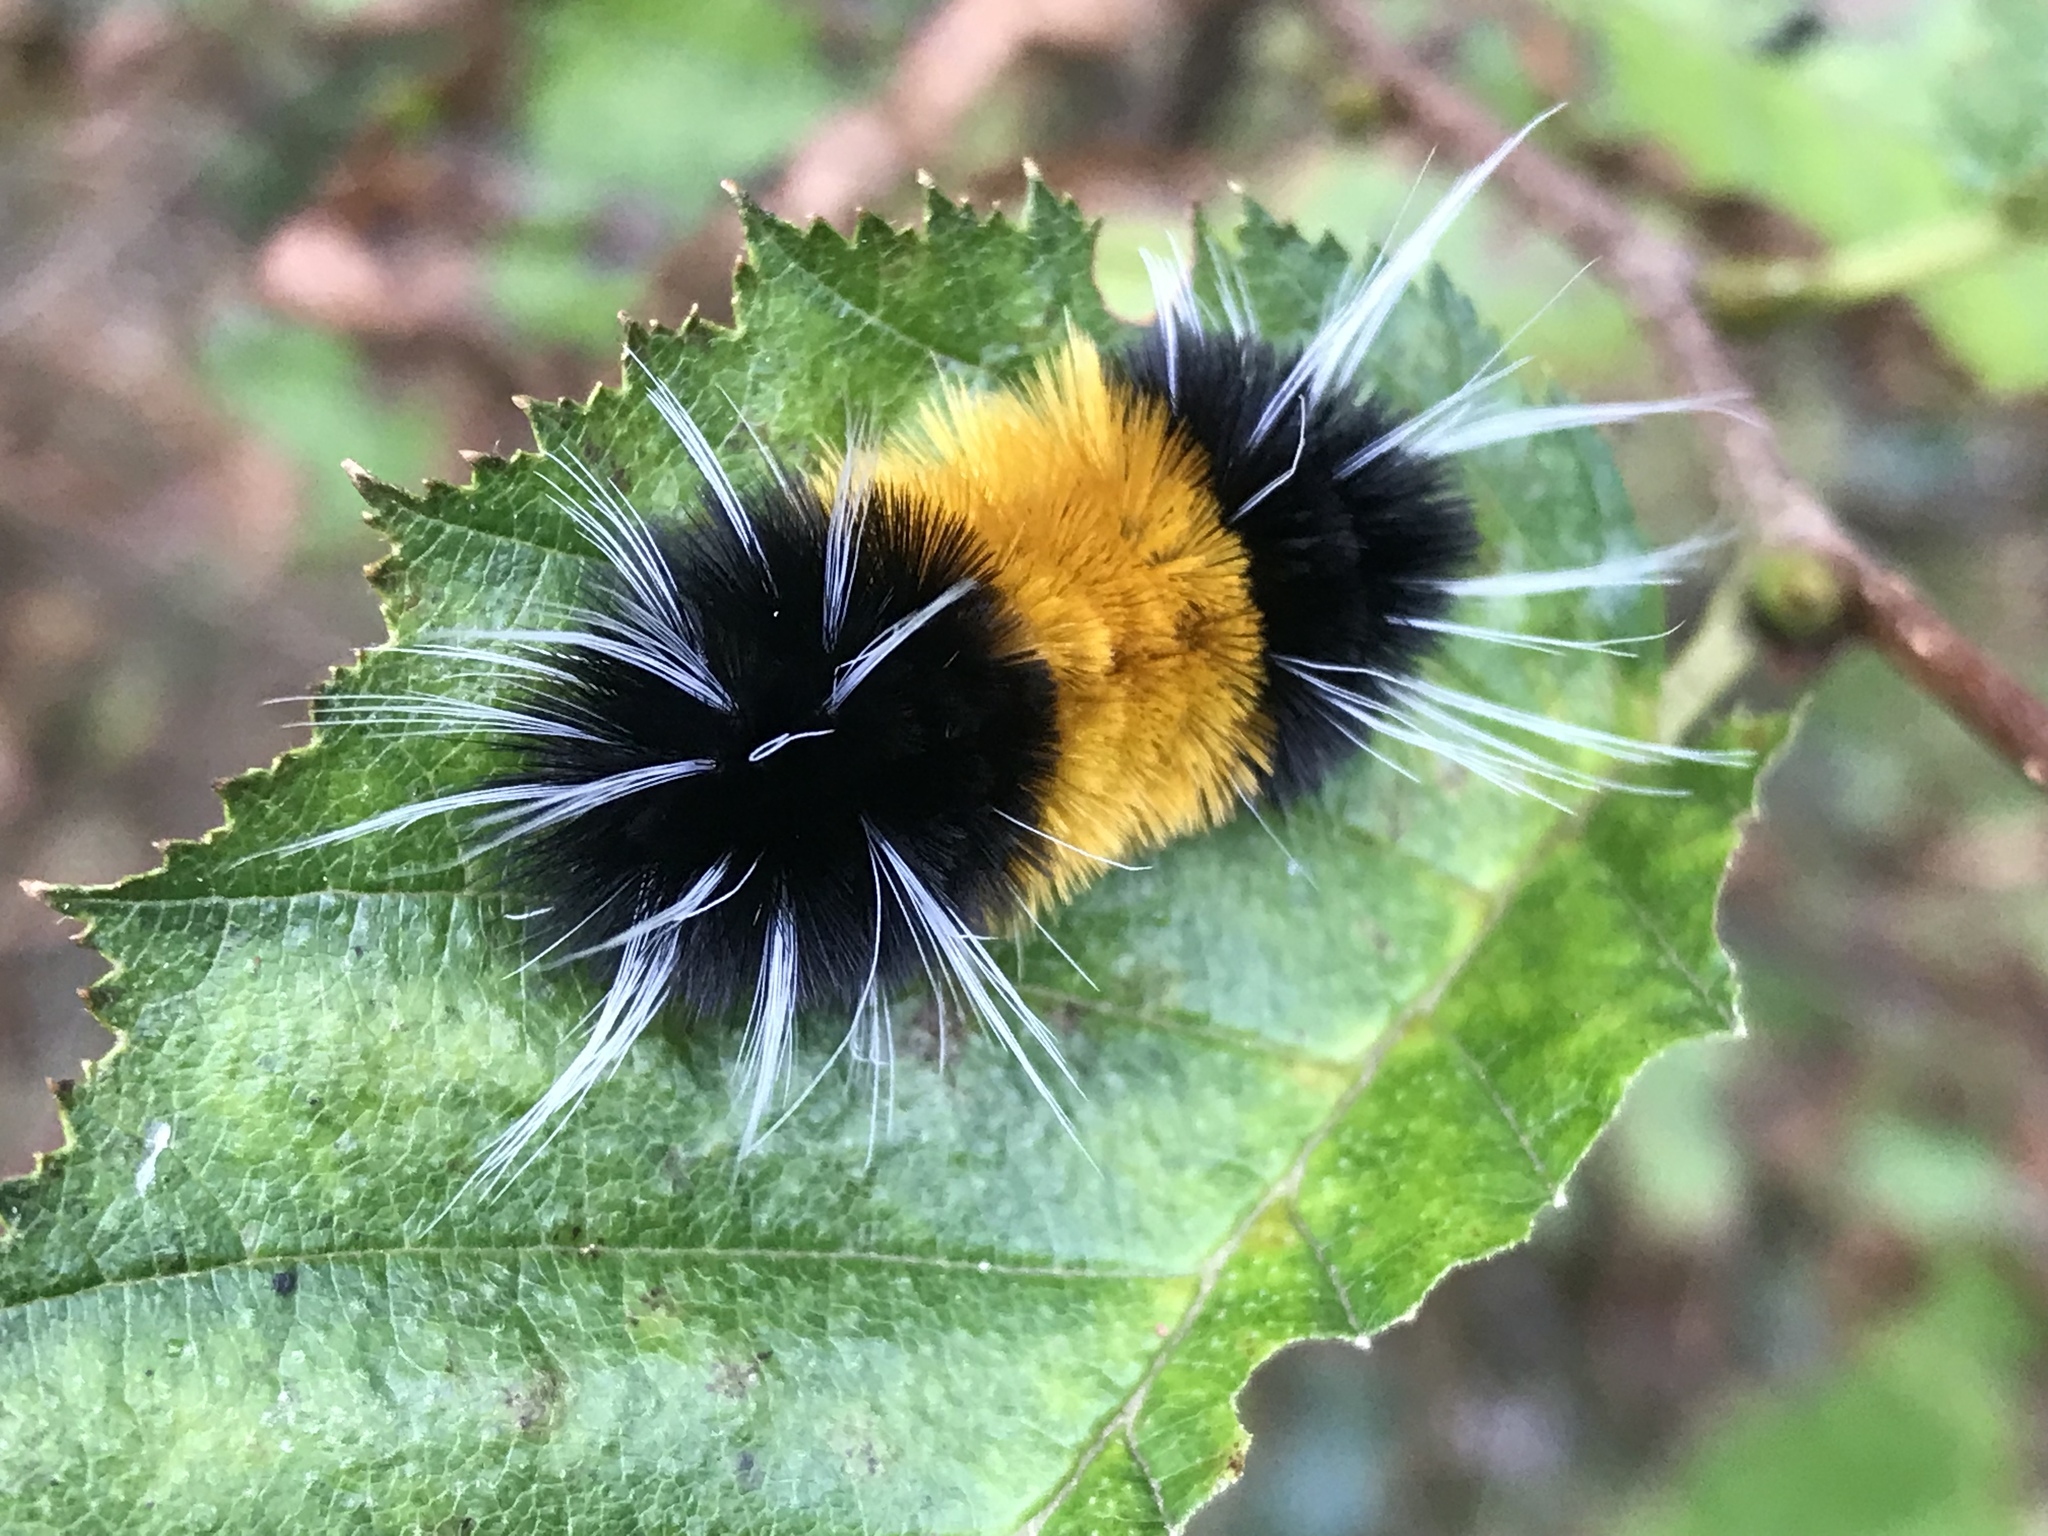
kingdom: Animalia
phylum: Arthropoda
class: Insecta
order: Lepidoptera
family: Erebidae
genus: Lophocampa
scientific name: Lophocampa maculata
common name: Spotted tussock moth
